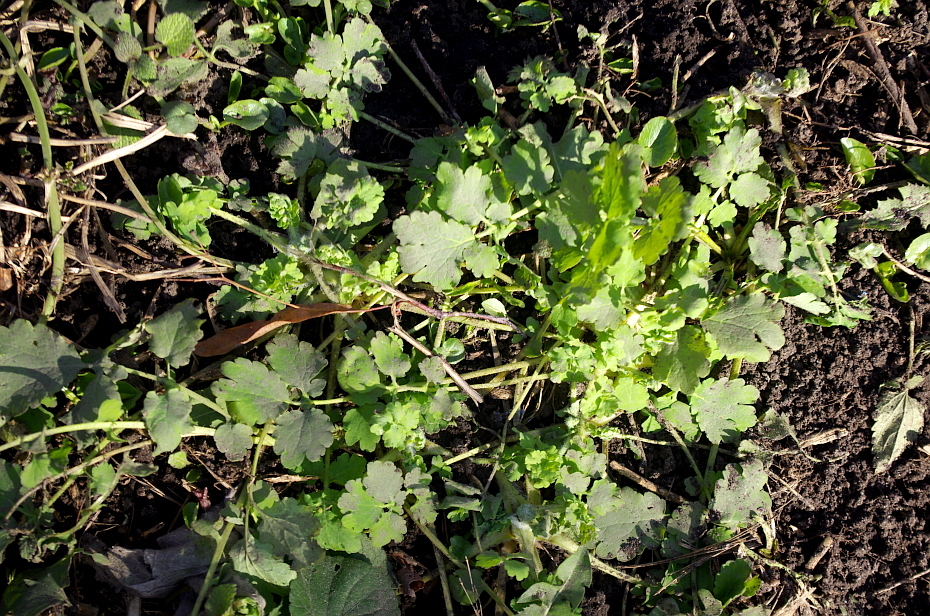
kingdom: Plantae
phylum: Tracheophyta
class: Magnoliopsida
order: Ranunculales
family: Papaveraceae
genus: Chelidonium
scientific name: Chelidonium majus
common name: Greater celandine
